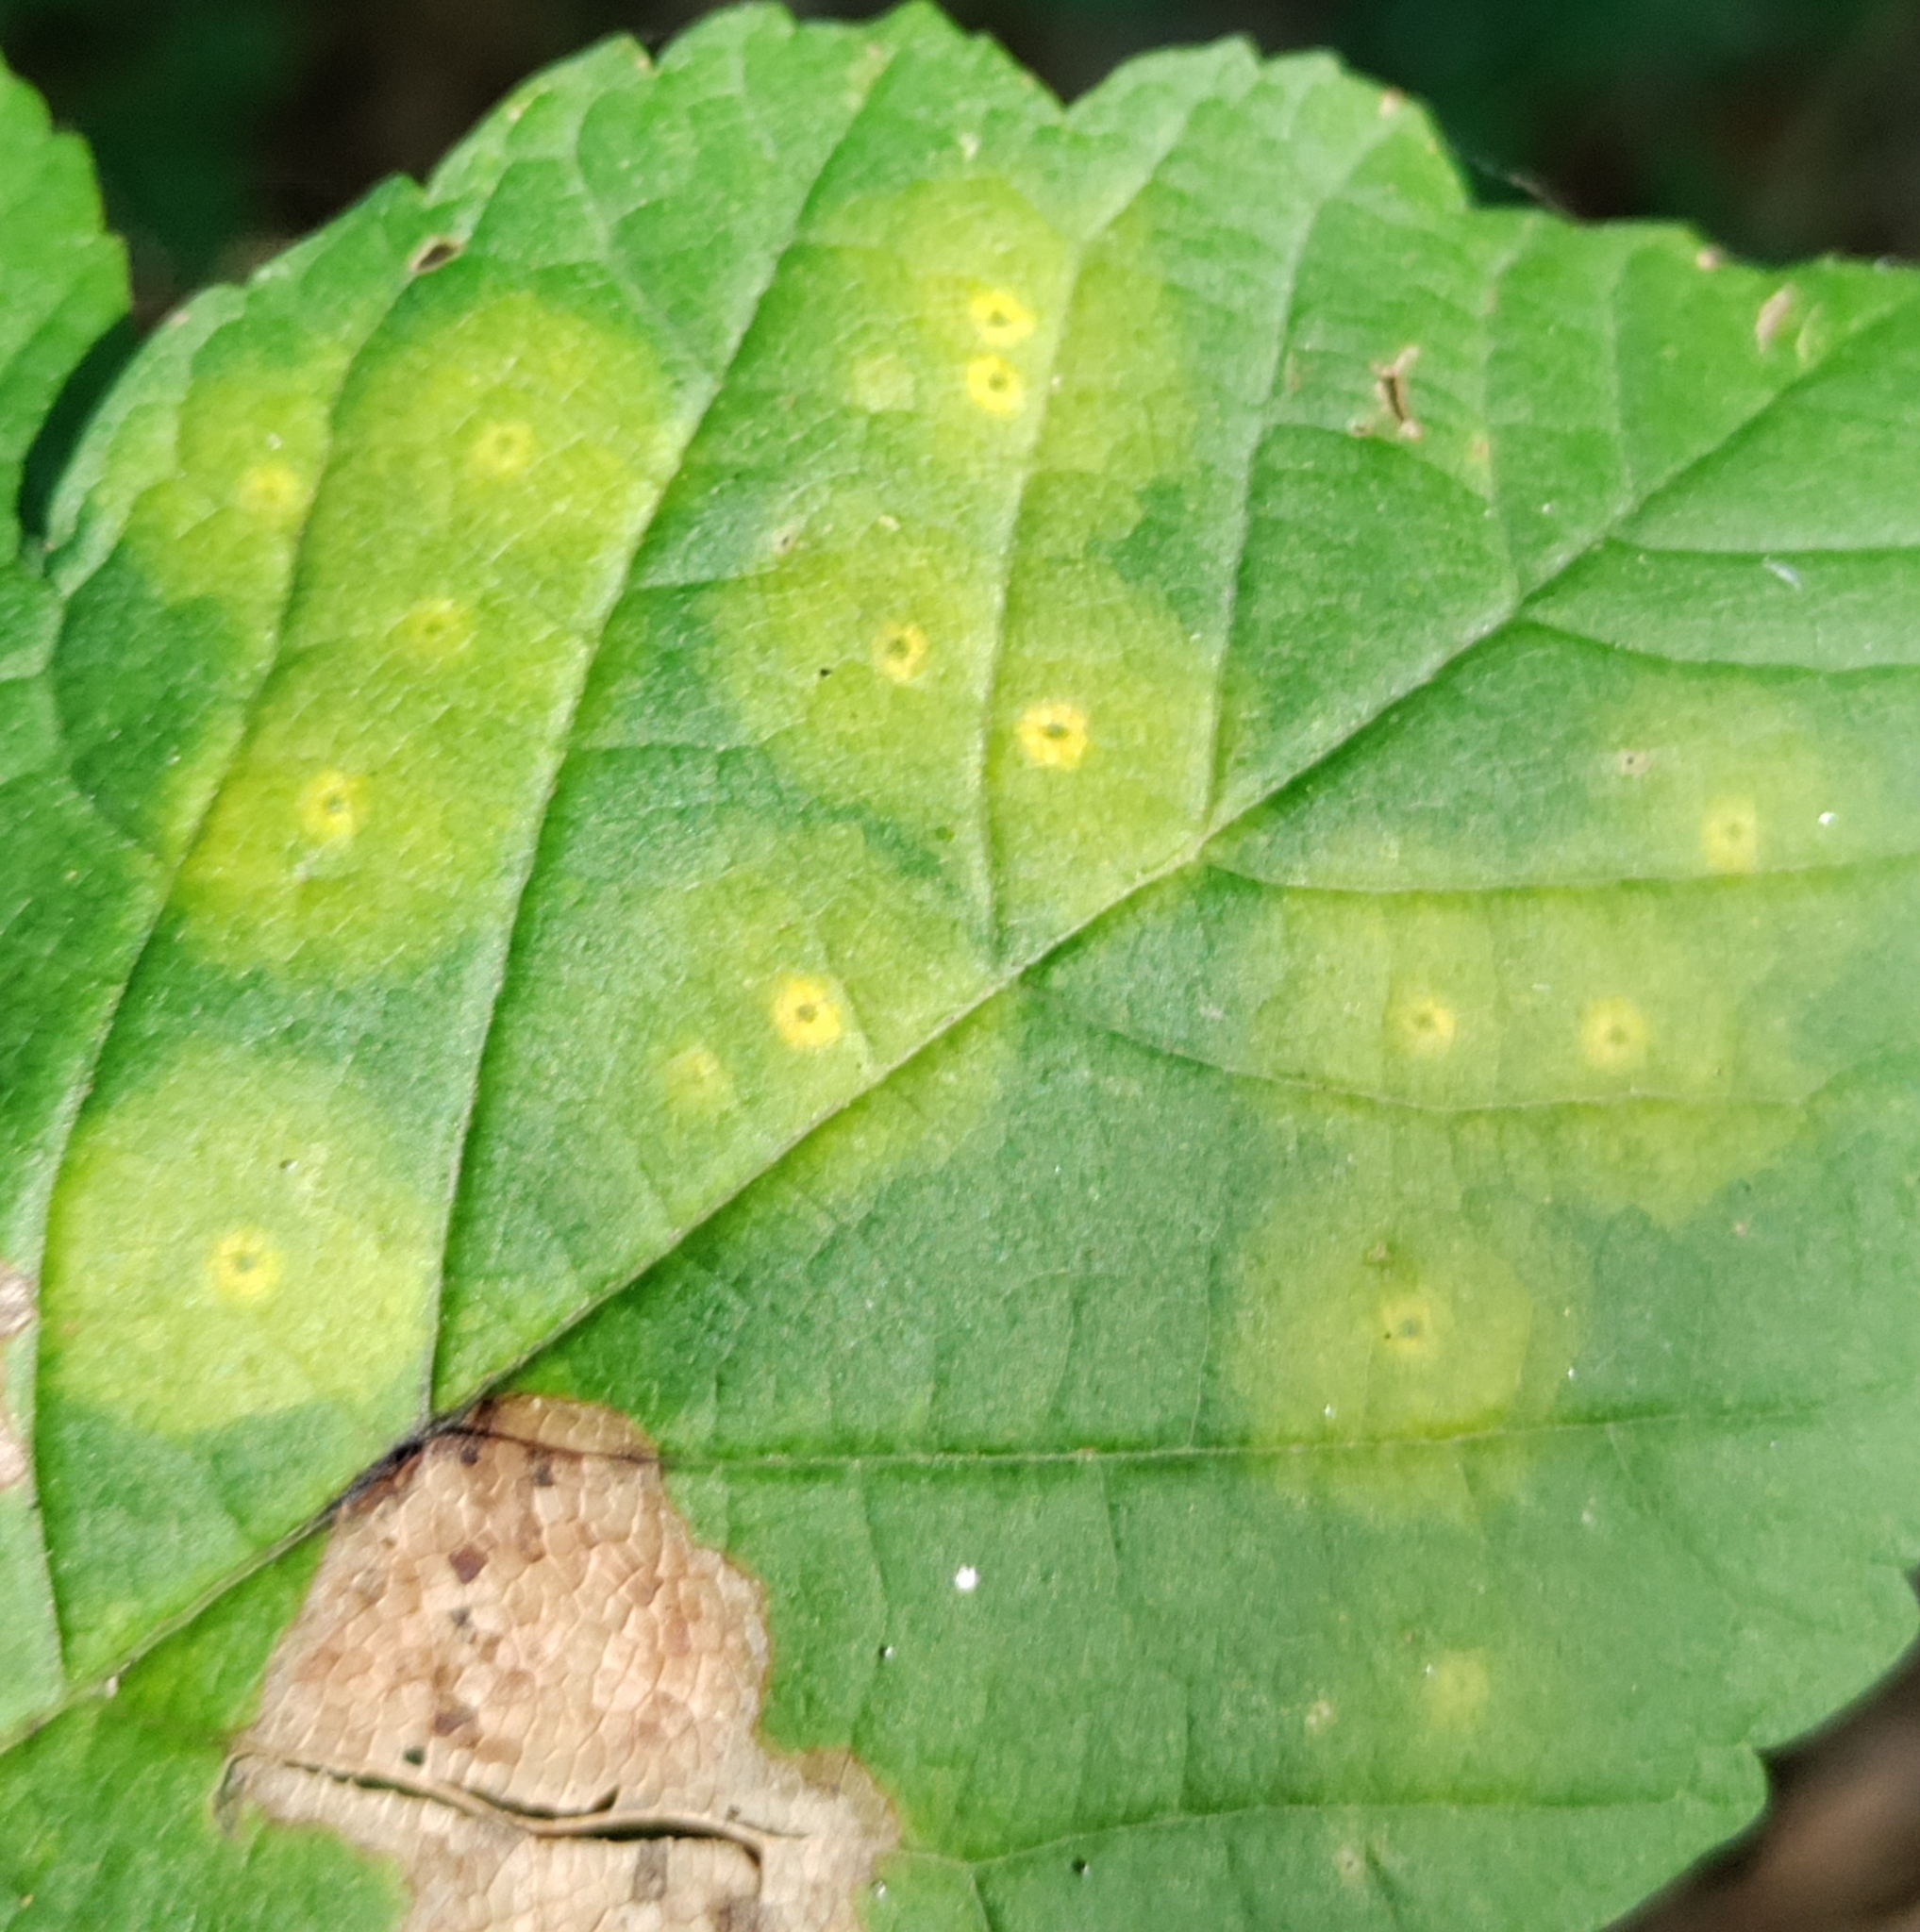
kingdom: Animalia
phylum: Arthropoda
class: Insecta
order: Diptera
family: Cecidomyiidae
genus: Drisina
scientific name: Drisina glutinosa
